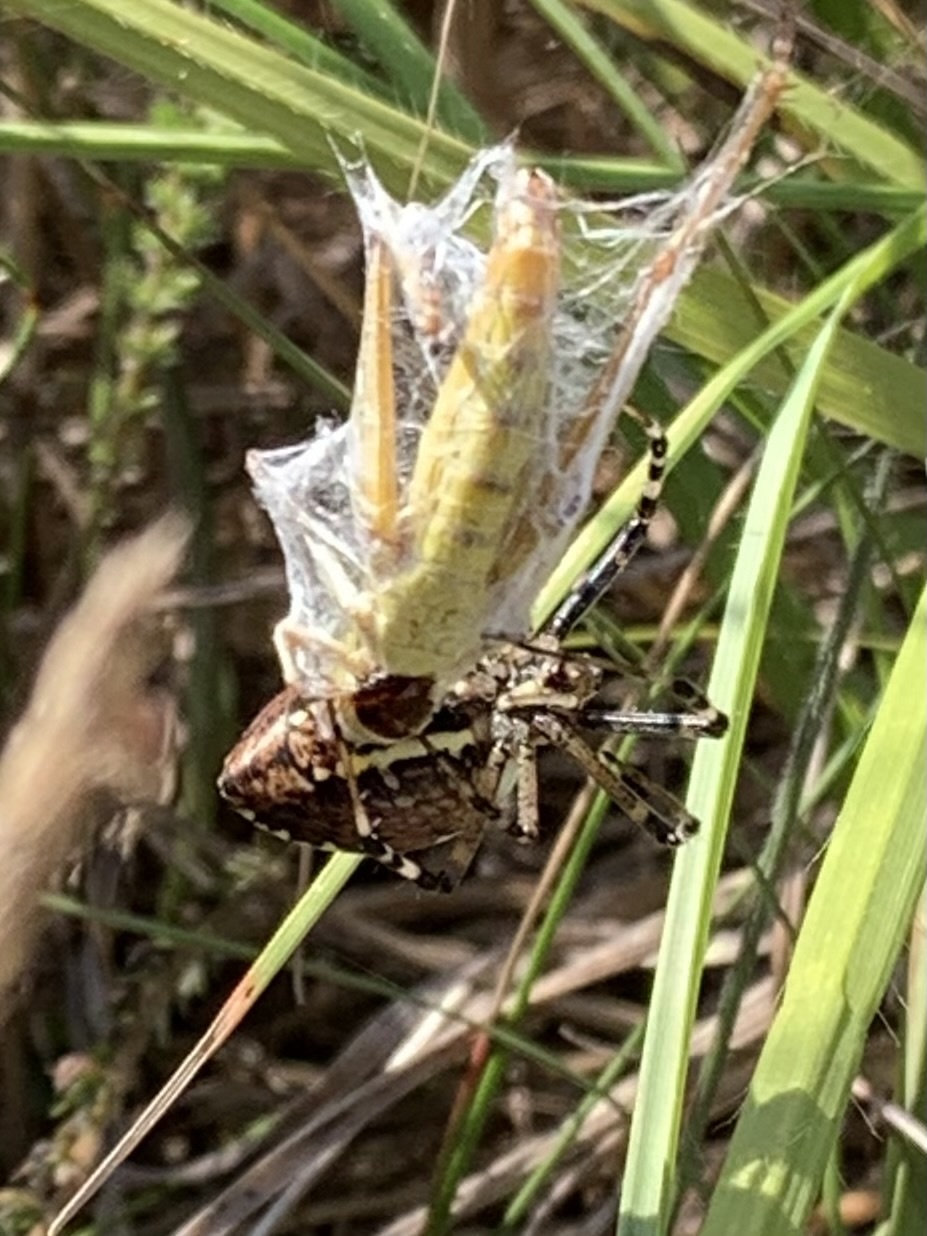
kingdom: Animalia
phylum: Arthropoda
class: Arachnida
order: Araneae
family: Araneidae
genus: Argiope
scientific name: Argiope bruennichi
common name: Wasp spider
